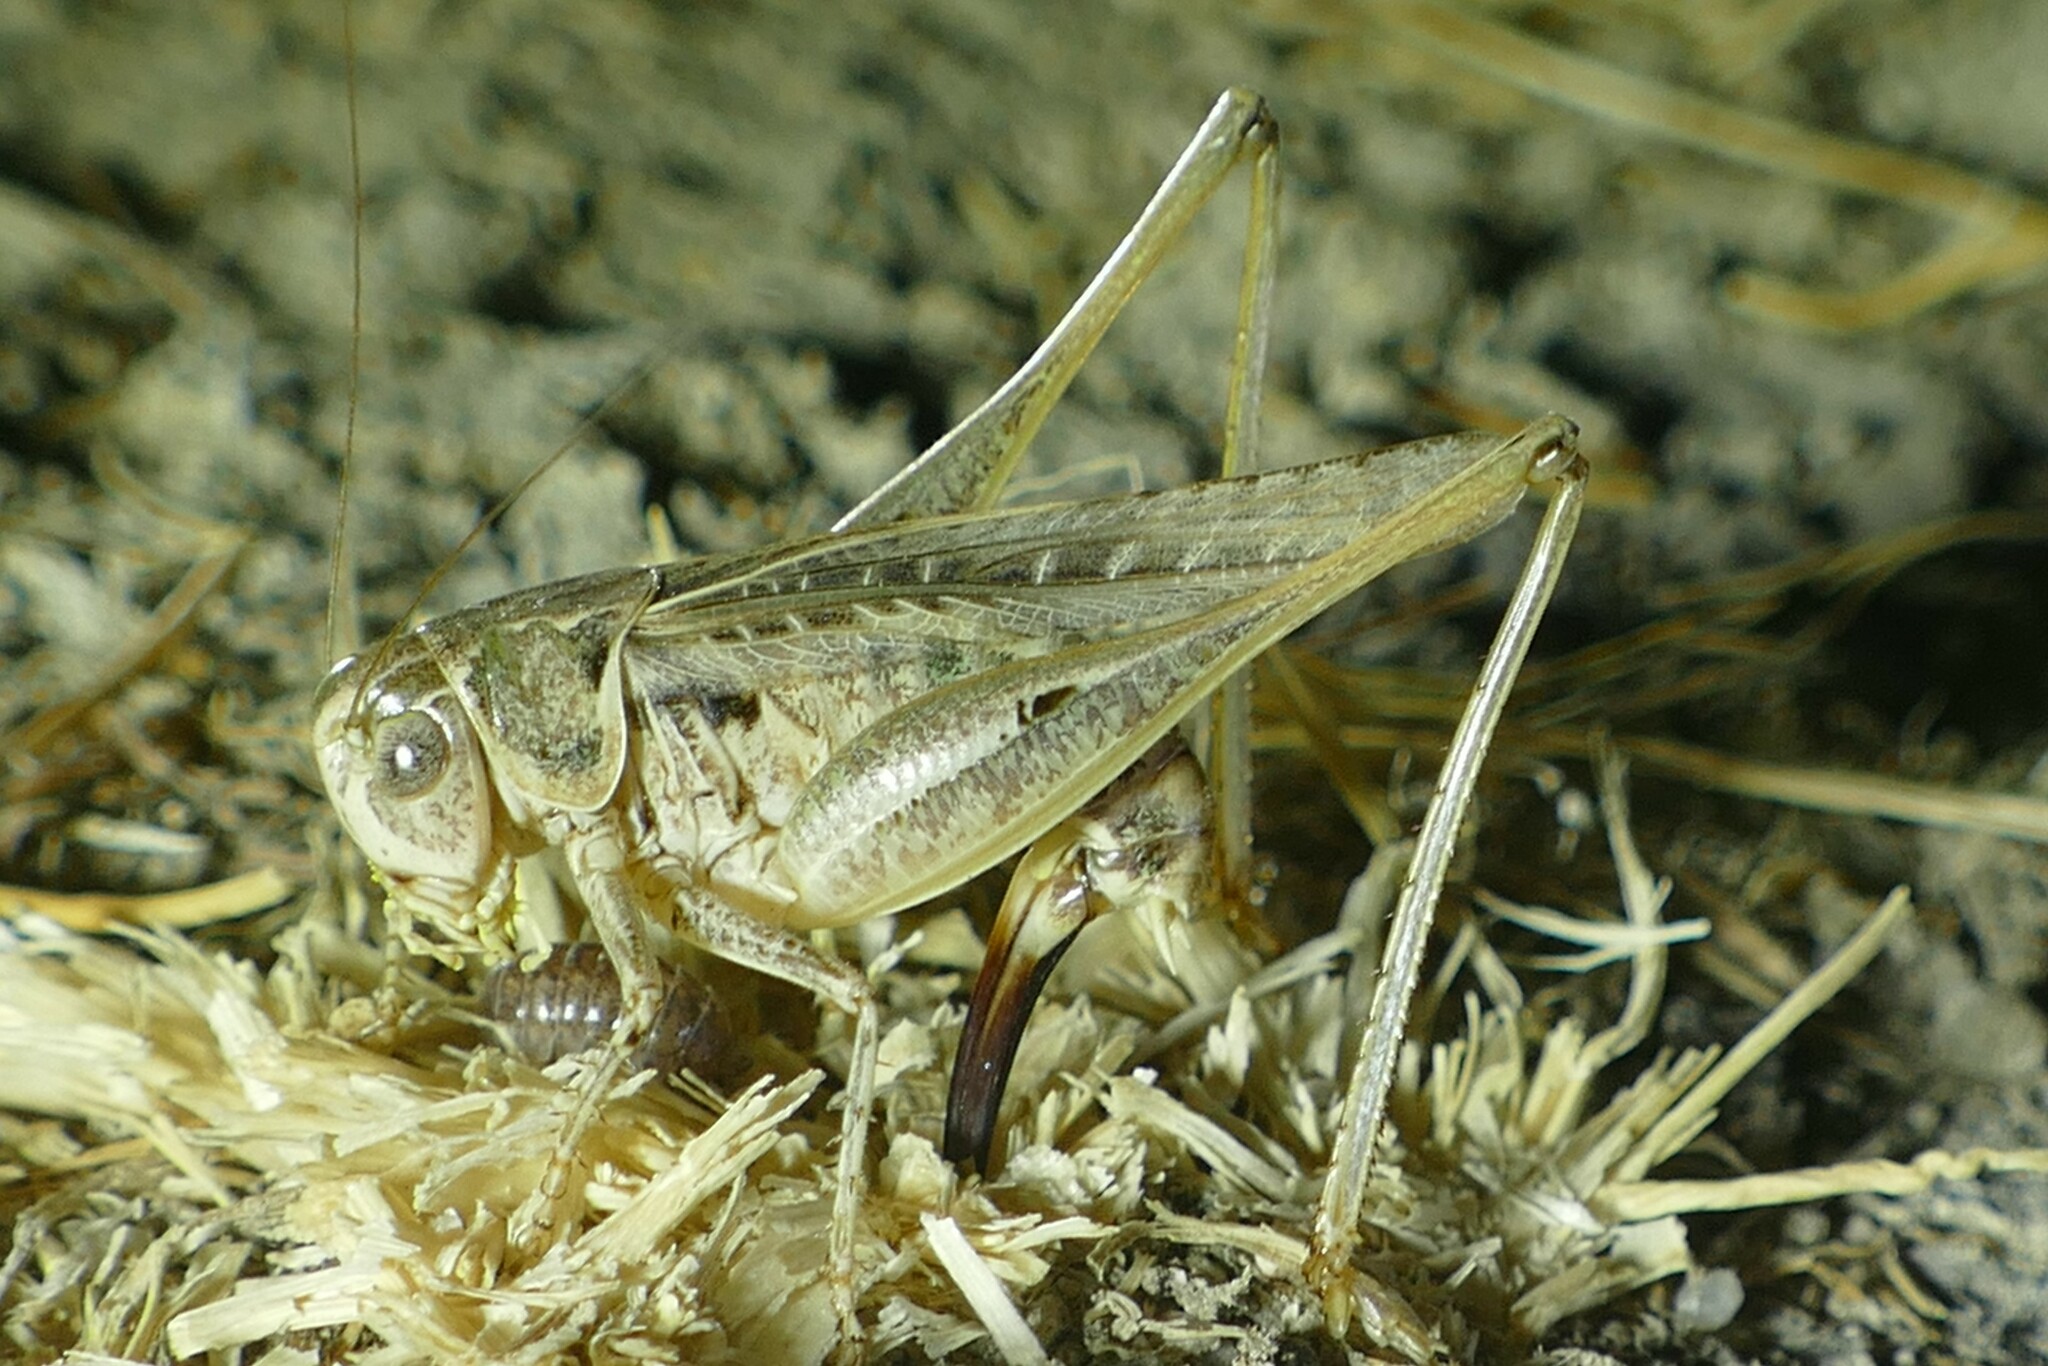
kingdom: Animalia
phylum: Arthropoda
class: Insecta
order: Orthoptera
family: Tettigoniidae
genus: Platycleis
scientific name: Platycleis albopunctata
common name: Grey bush-cricket
